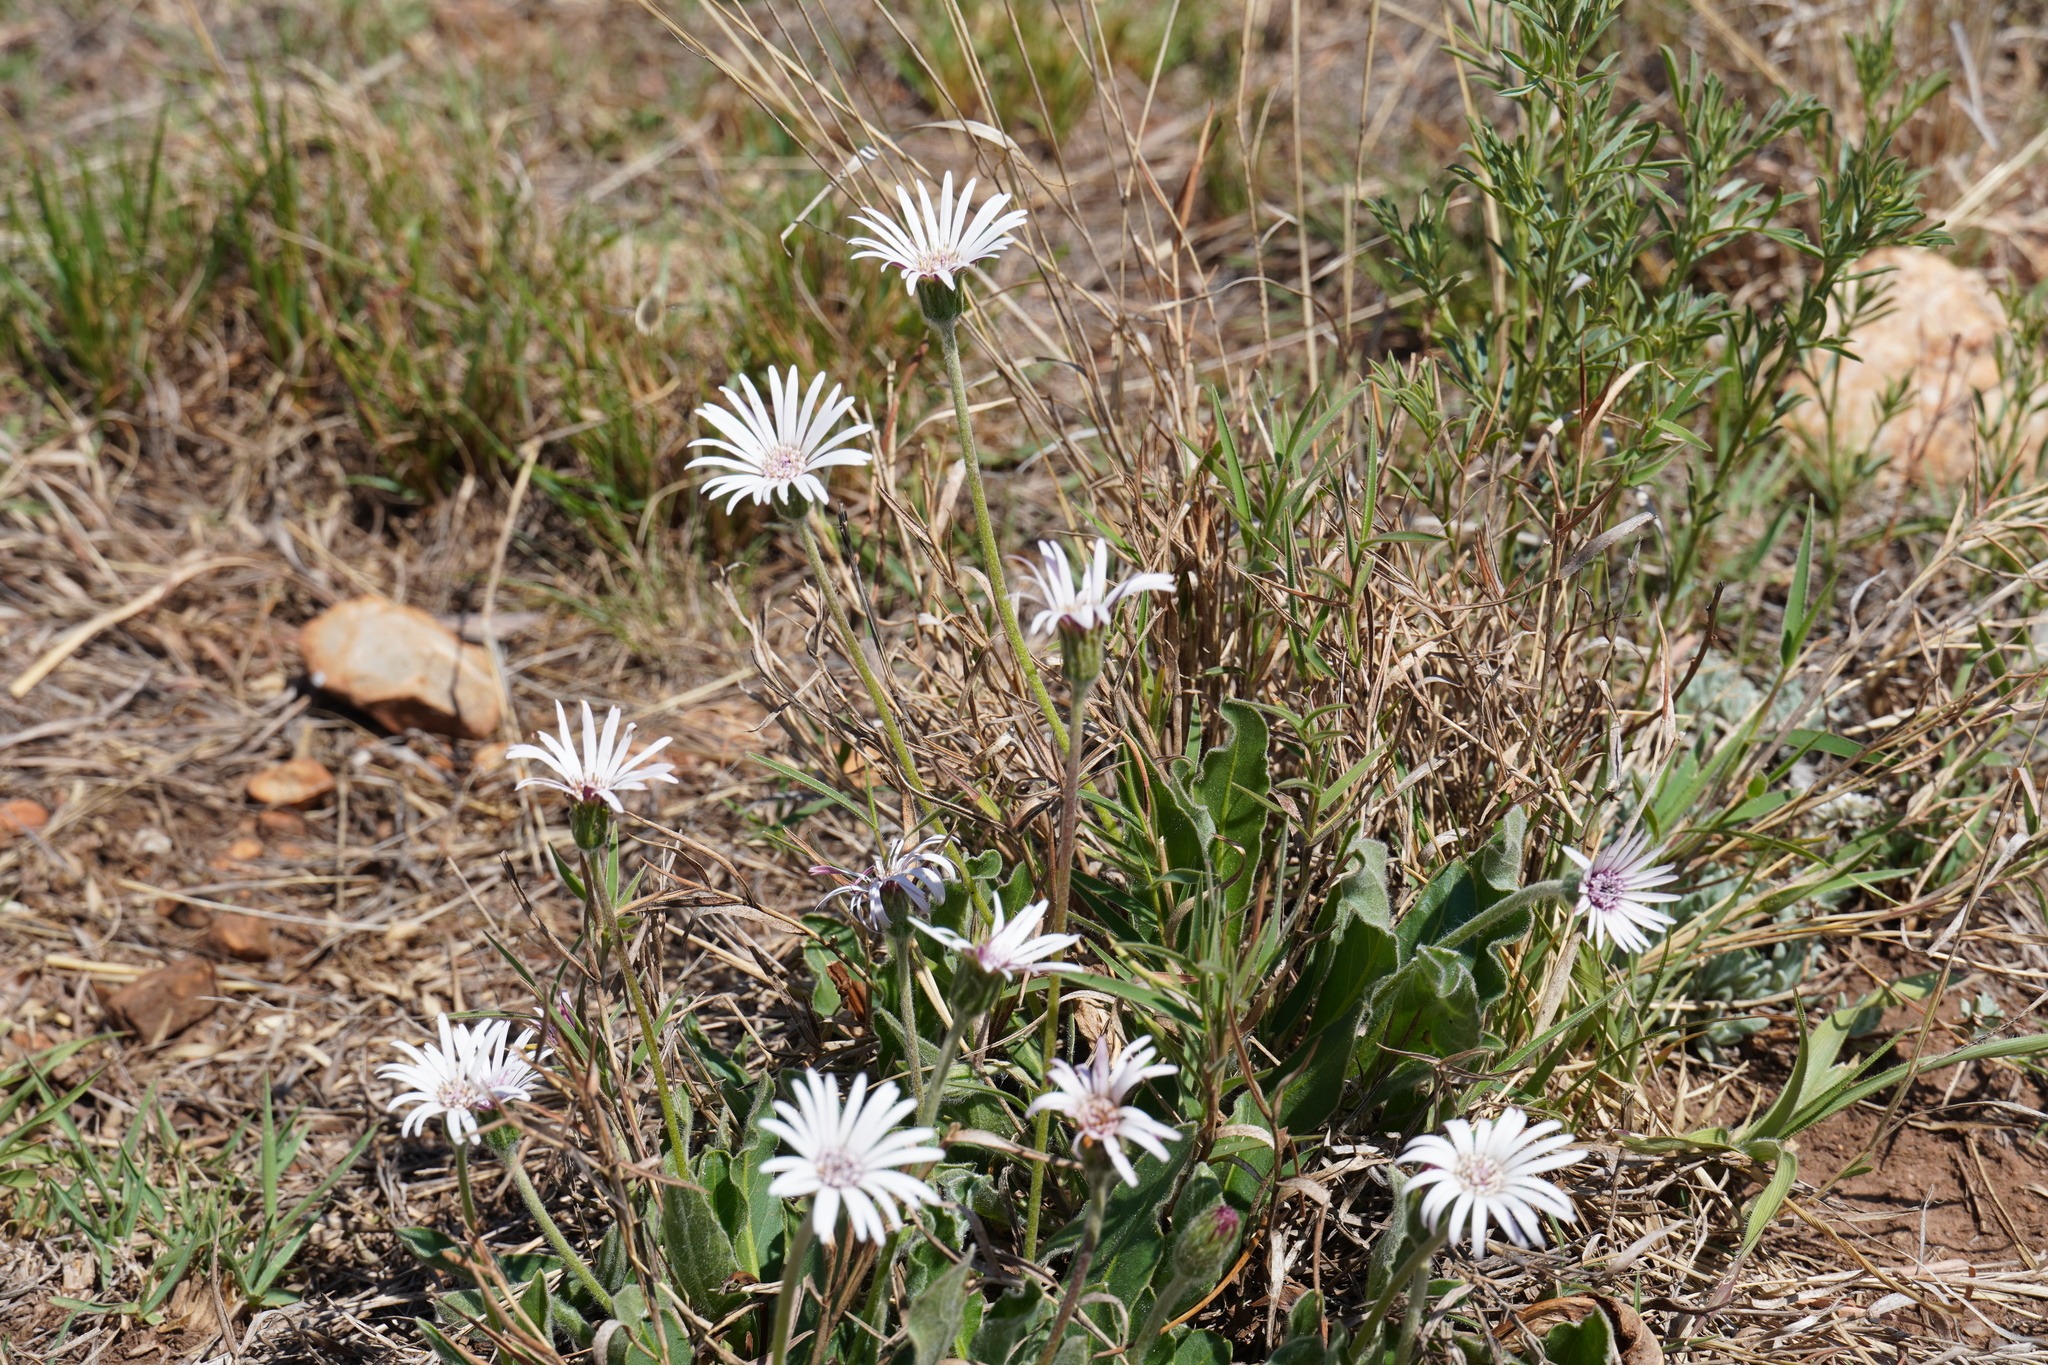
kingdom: Plantae
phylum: Tracheophyta
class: Magnoliopsida
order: Asterales
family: Asteraceae
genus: Gerbera
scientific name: Gerbera viridifolia
